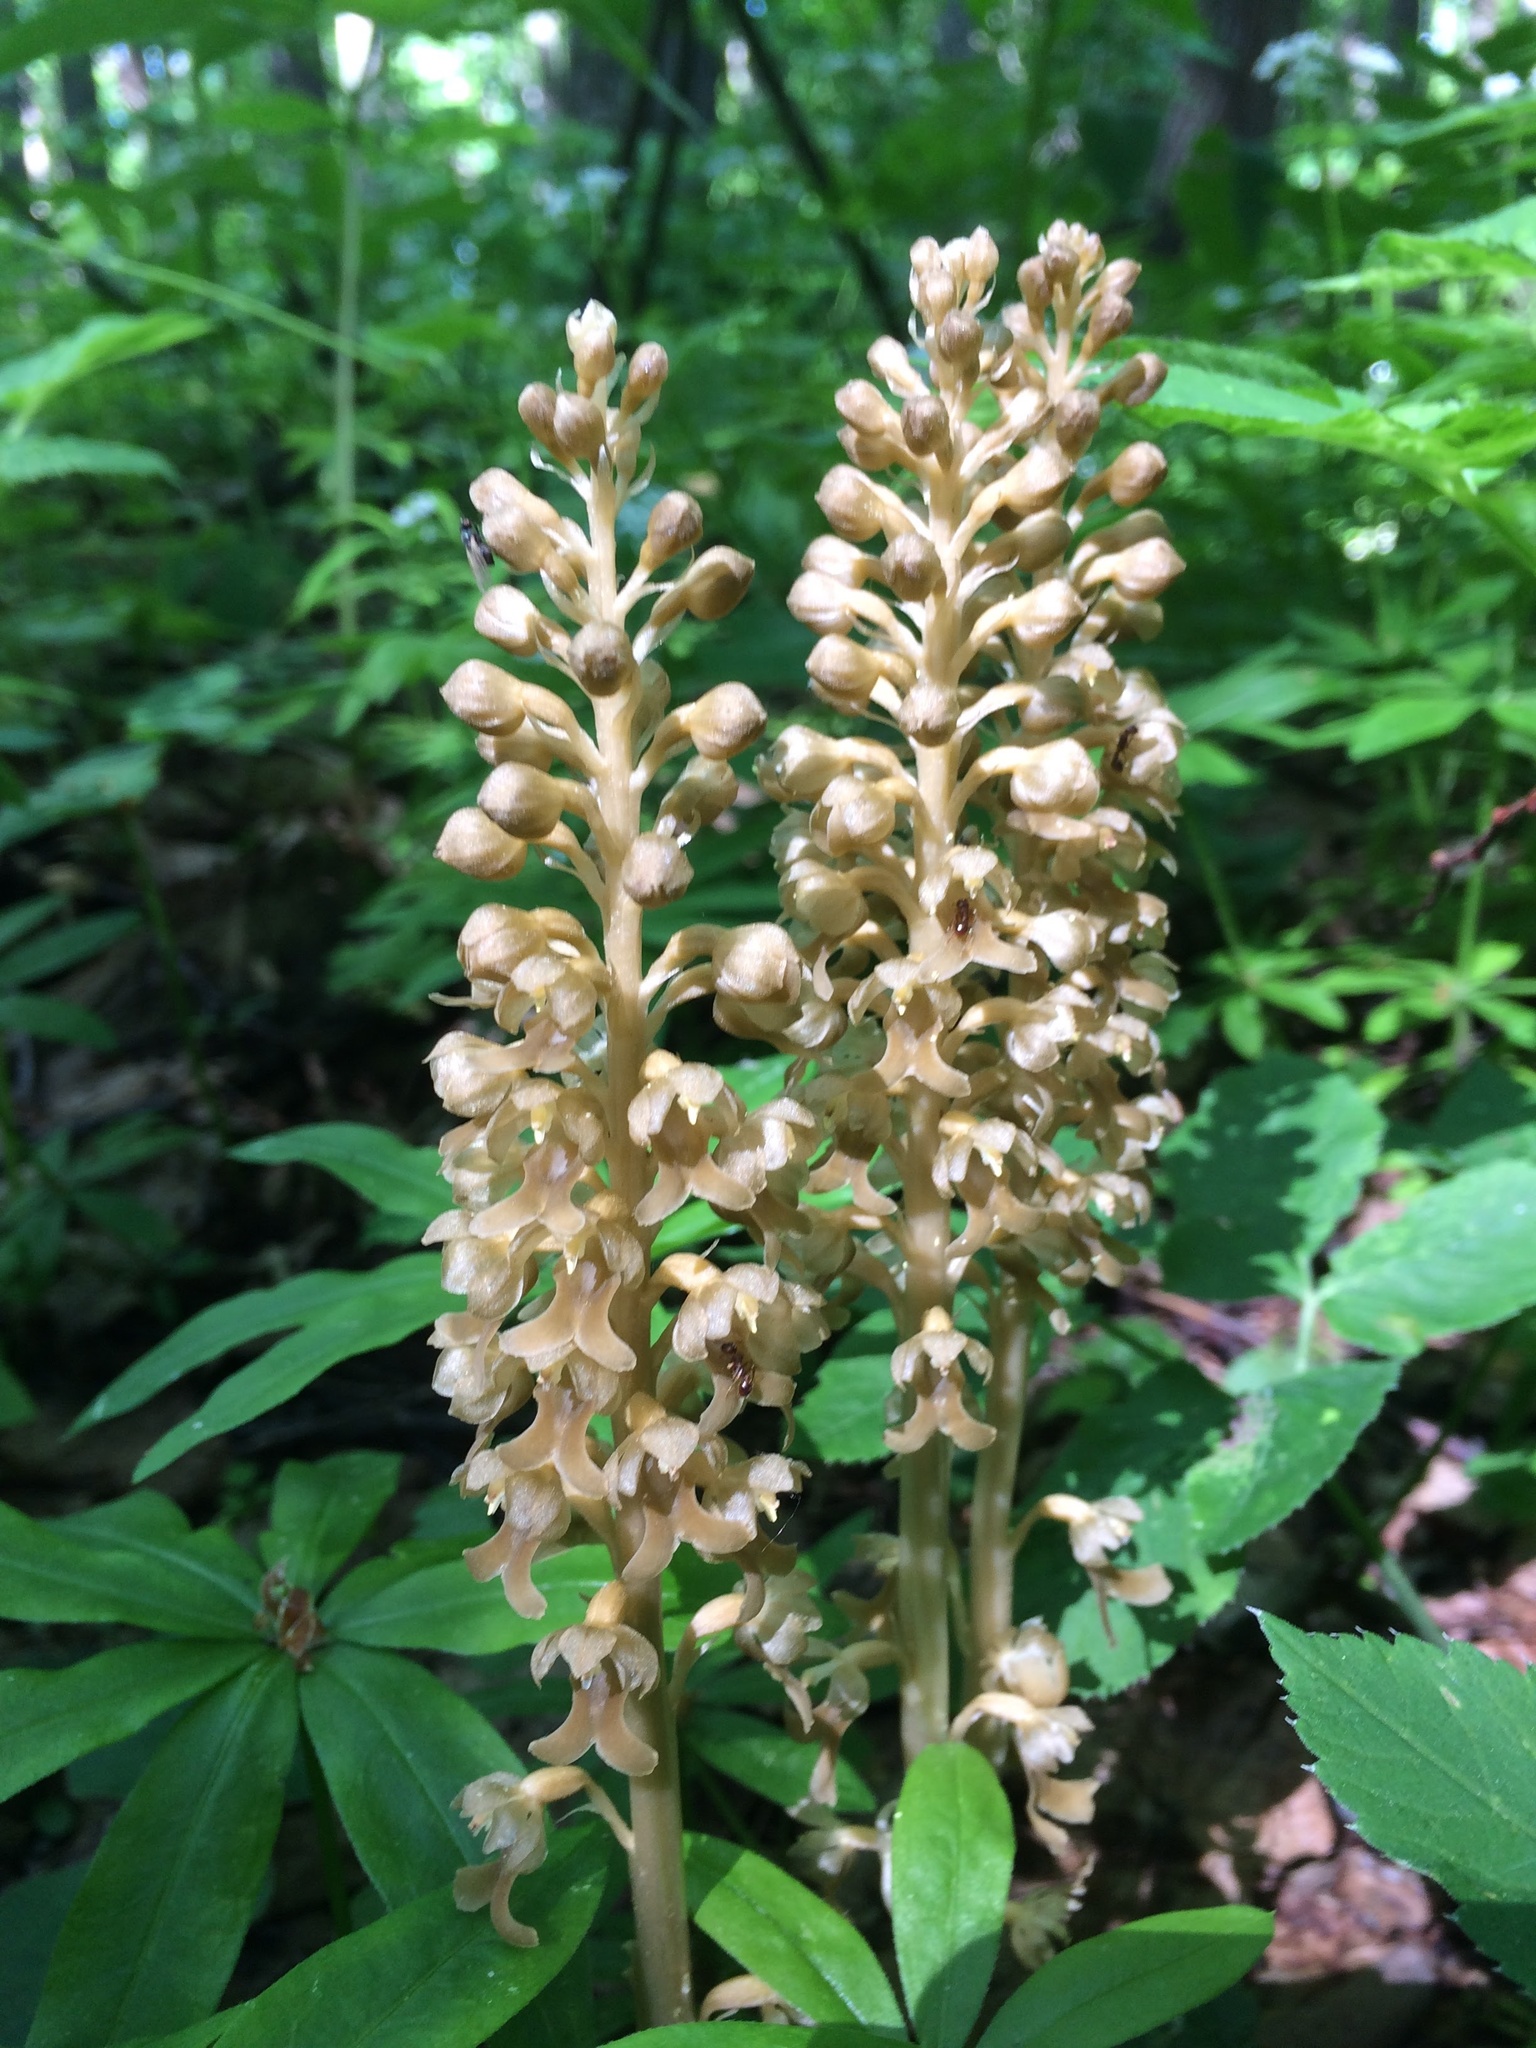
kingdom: Plantae
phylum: Tracheophyta
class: Liliopsida
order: Asparagales
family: Orchidaceae
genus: Neottia
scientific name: Neottia nidus-avis
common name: Bird's-nest orchid
